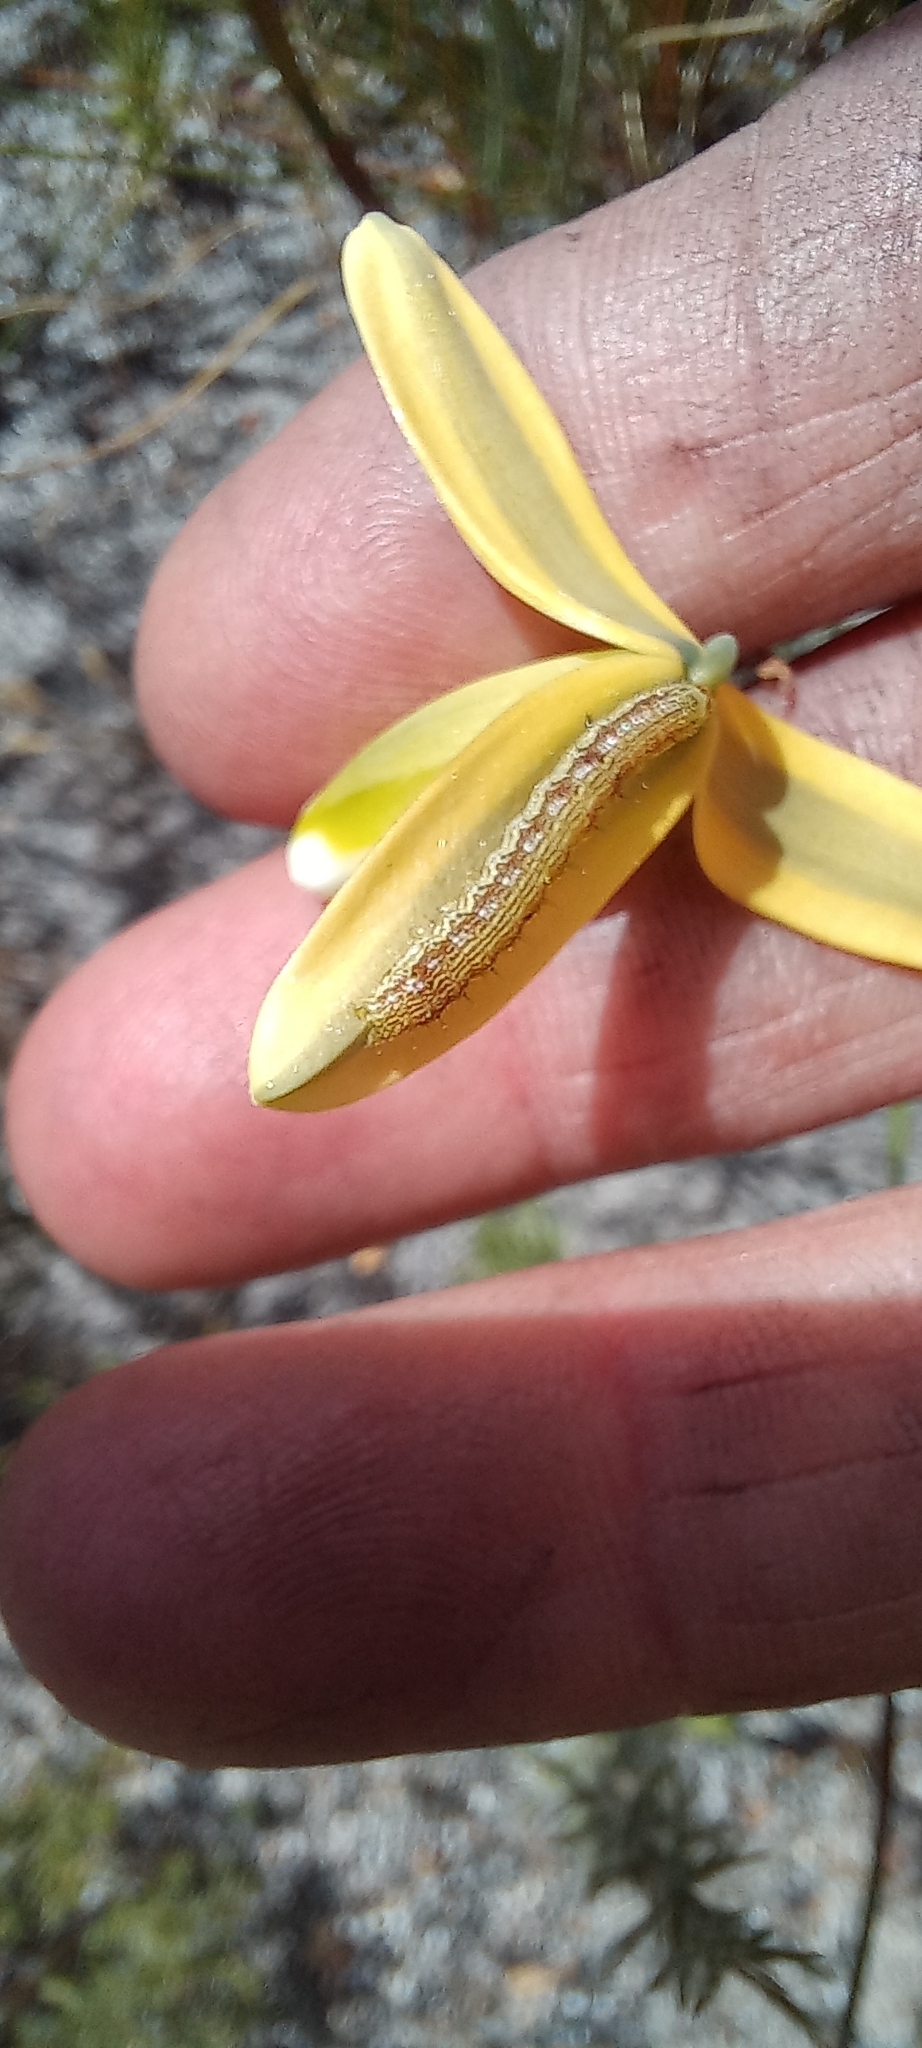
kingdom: Animalia
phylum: Arthropoda
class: Insecta
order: Lepidoptera
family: Noctuidae
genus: Helicoverpa
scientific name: Helicoverpa armigera
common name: Cotton bollworm
